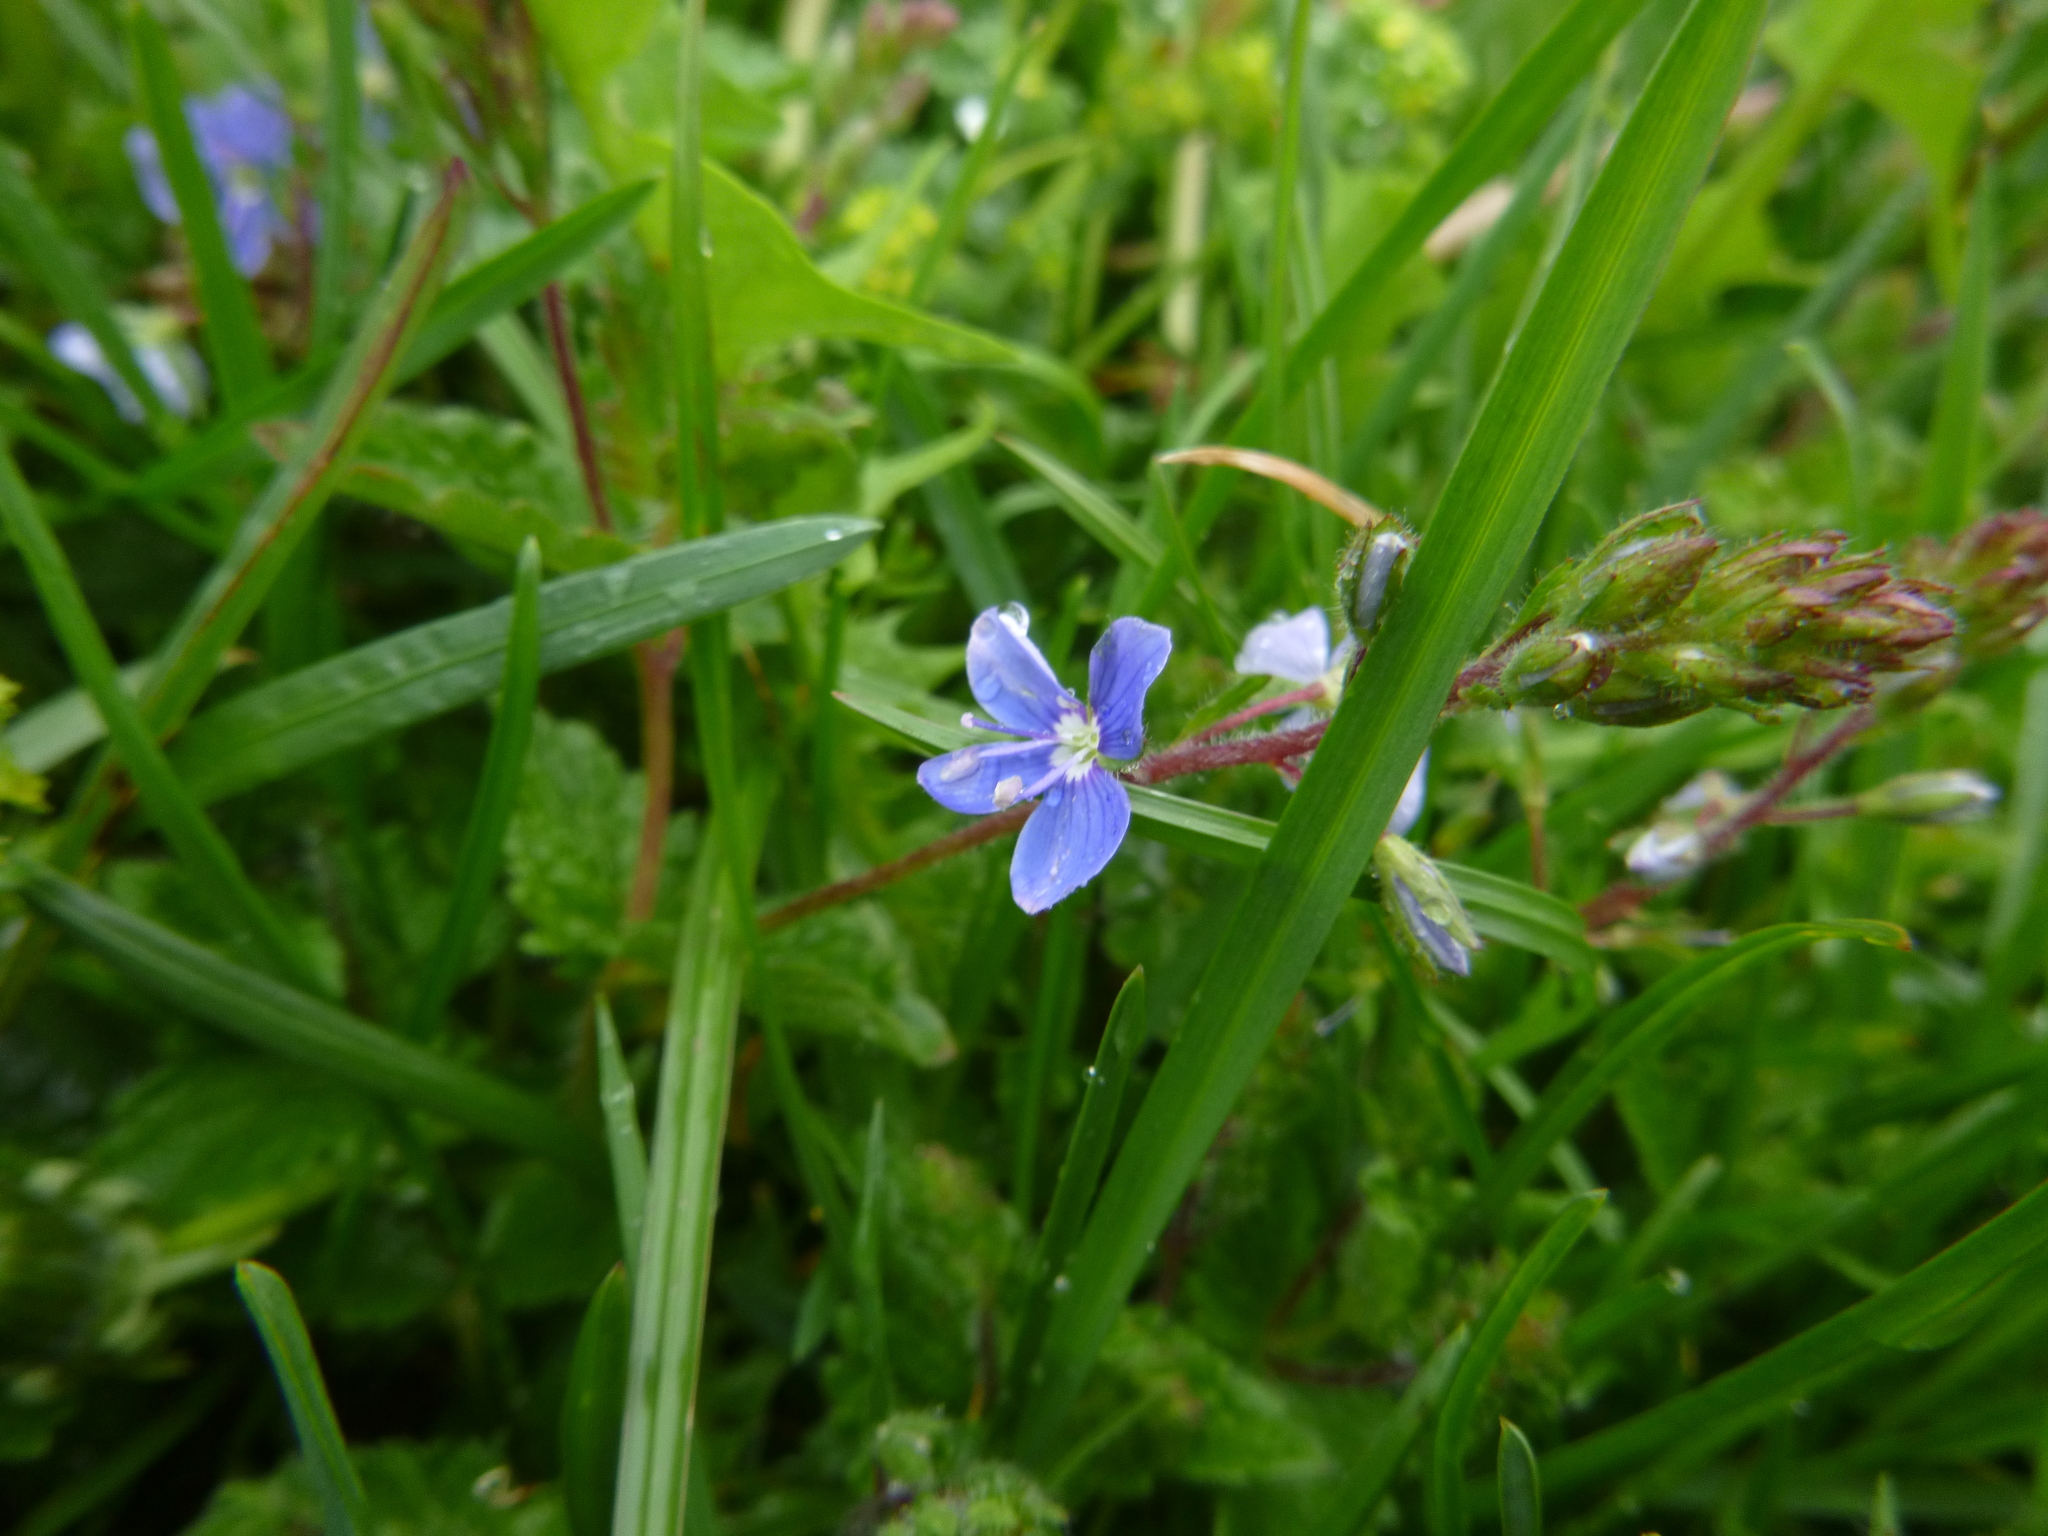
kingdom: Plantae
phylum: Tracheophyta
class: Magnoliopsida
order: Lamiales
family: Plantaginaceae
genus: Veronica
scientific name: Veronica chamaedrys
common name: Germander speedwell
